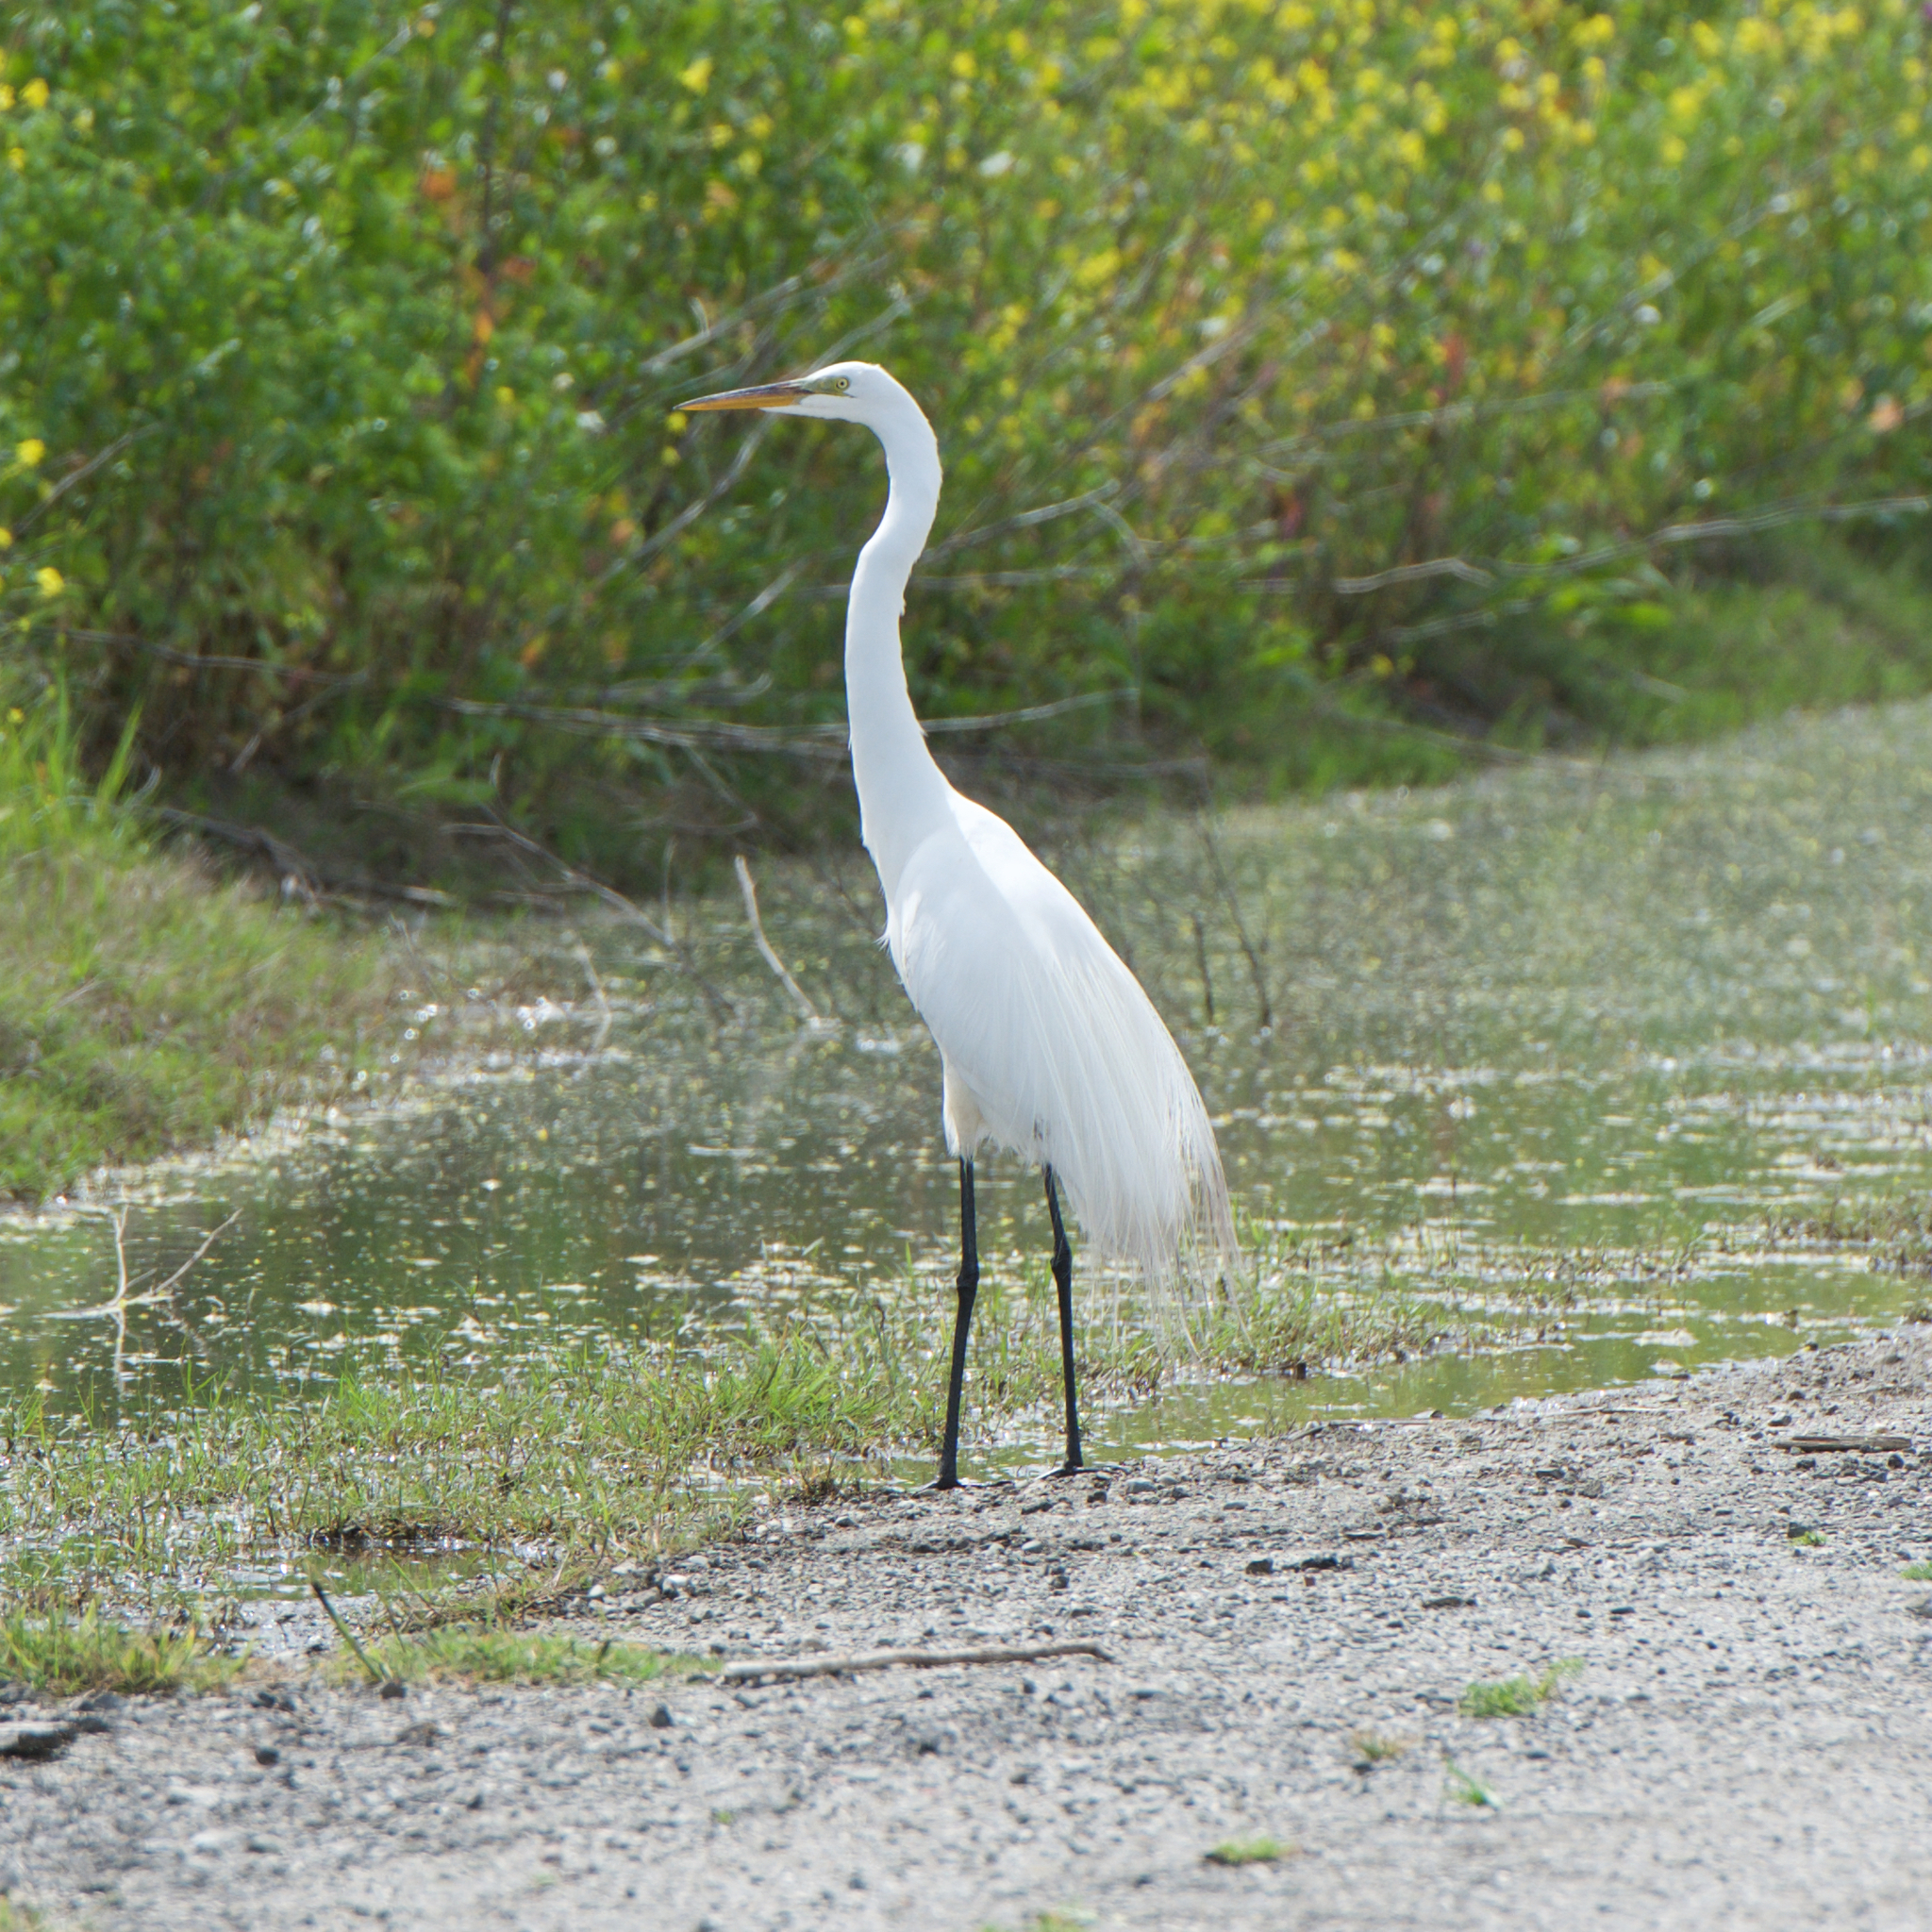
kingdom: Animalia
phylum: Chordata
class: Aves
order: Pelecaniformes
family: Ardeidae
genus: Ardea
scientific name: Ardea alba
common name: Great egret
